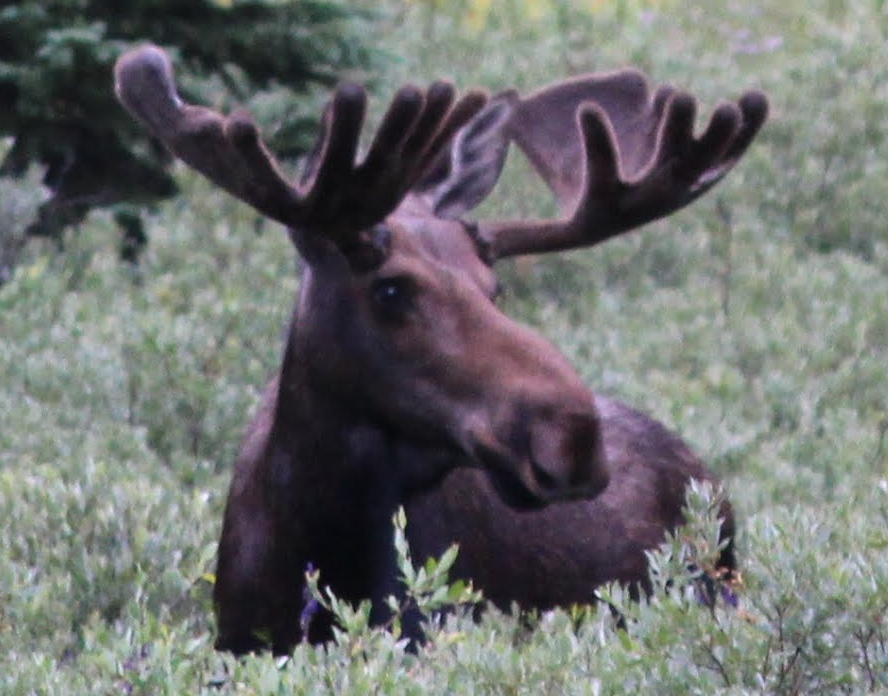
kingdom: Animalia
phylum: Chordata
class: Mammalia
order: Artiodactyla
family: Cervidae
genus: Alces
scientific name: Alces alces
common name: Moose
